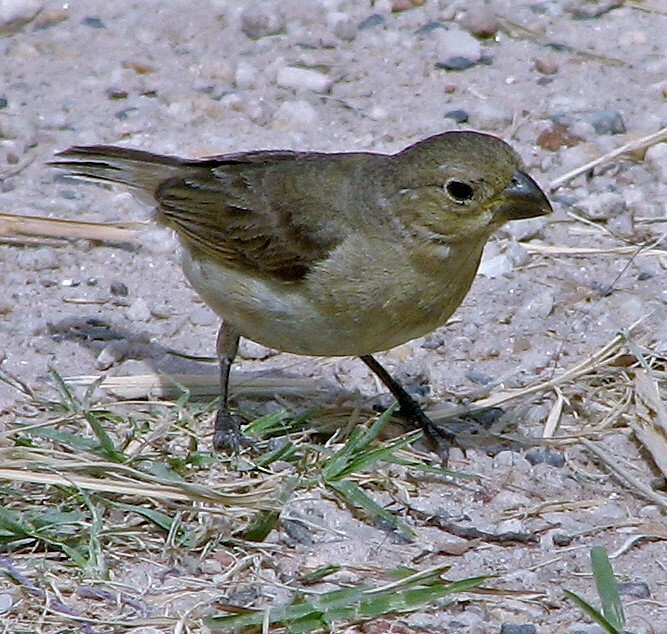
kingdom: Animalia
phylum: Chordata
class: Aves
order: Passeriformes
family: Thraupidae
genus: Sporophila
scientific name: Sporophila caerulescens
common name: Double-collared seedeater
